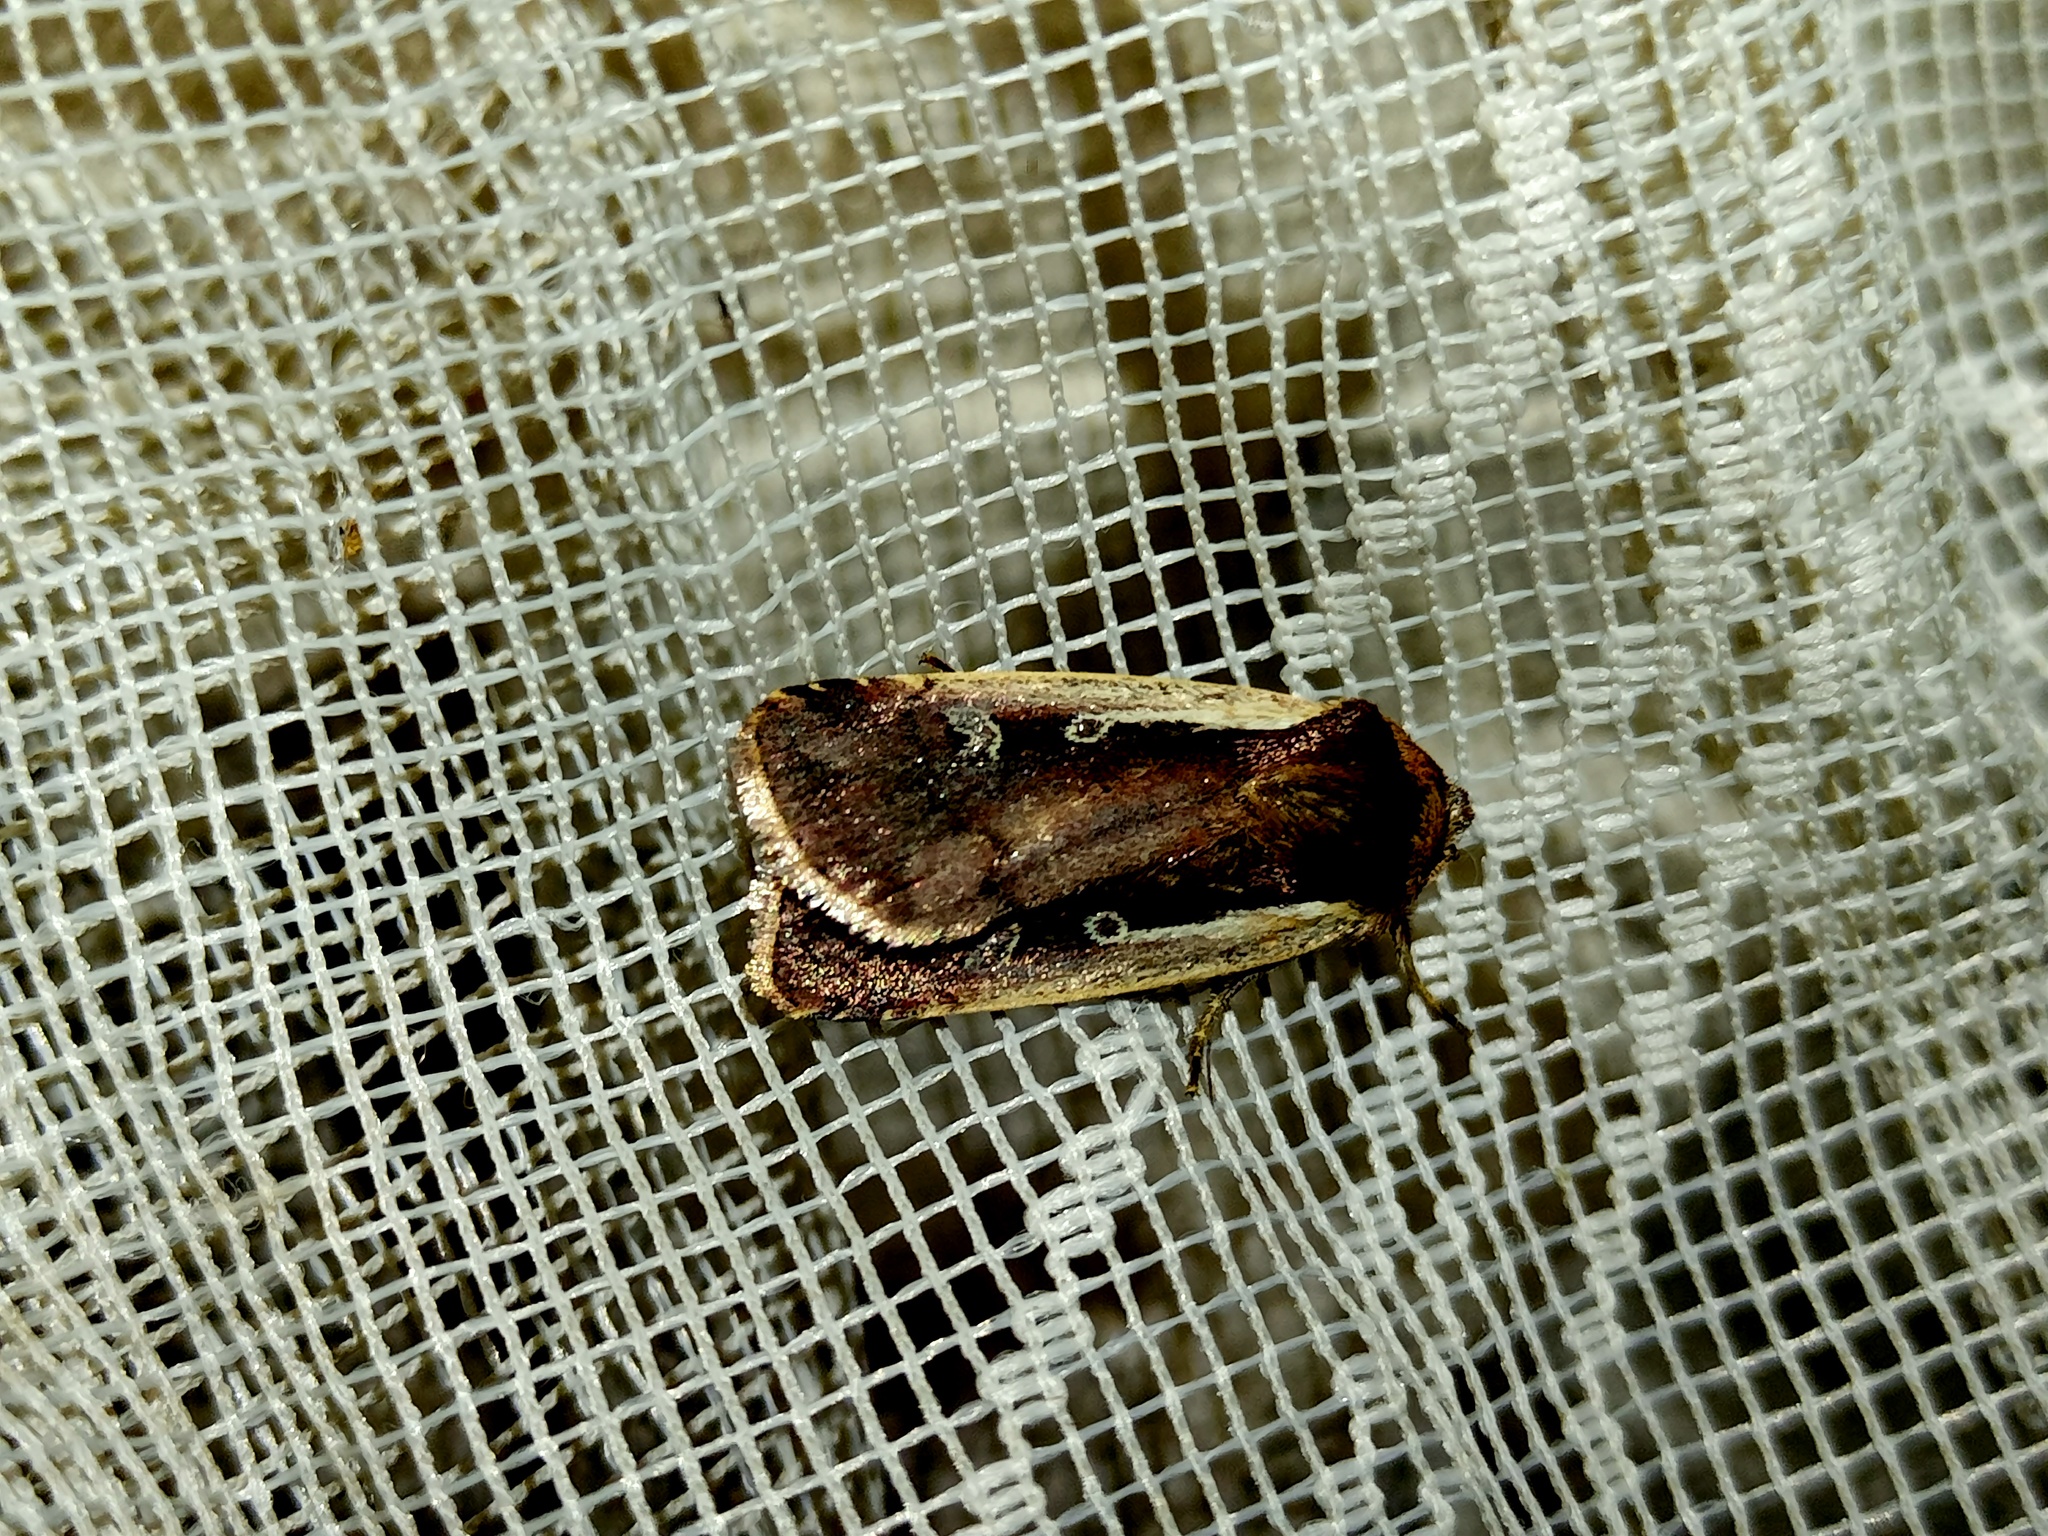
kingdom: Animalia
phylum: Arthropoda
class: Insecta
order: Lepidoptera
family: Noctuidae
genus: Ochropleura
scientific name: Ochropleura plecta
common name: Flame shoulder
